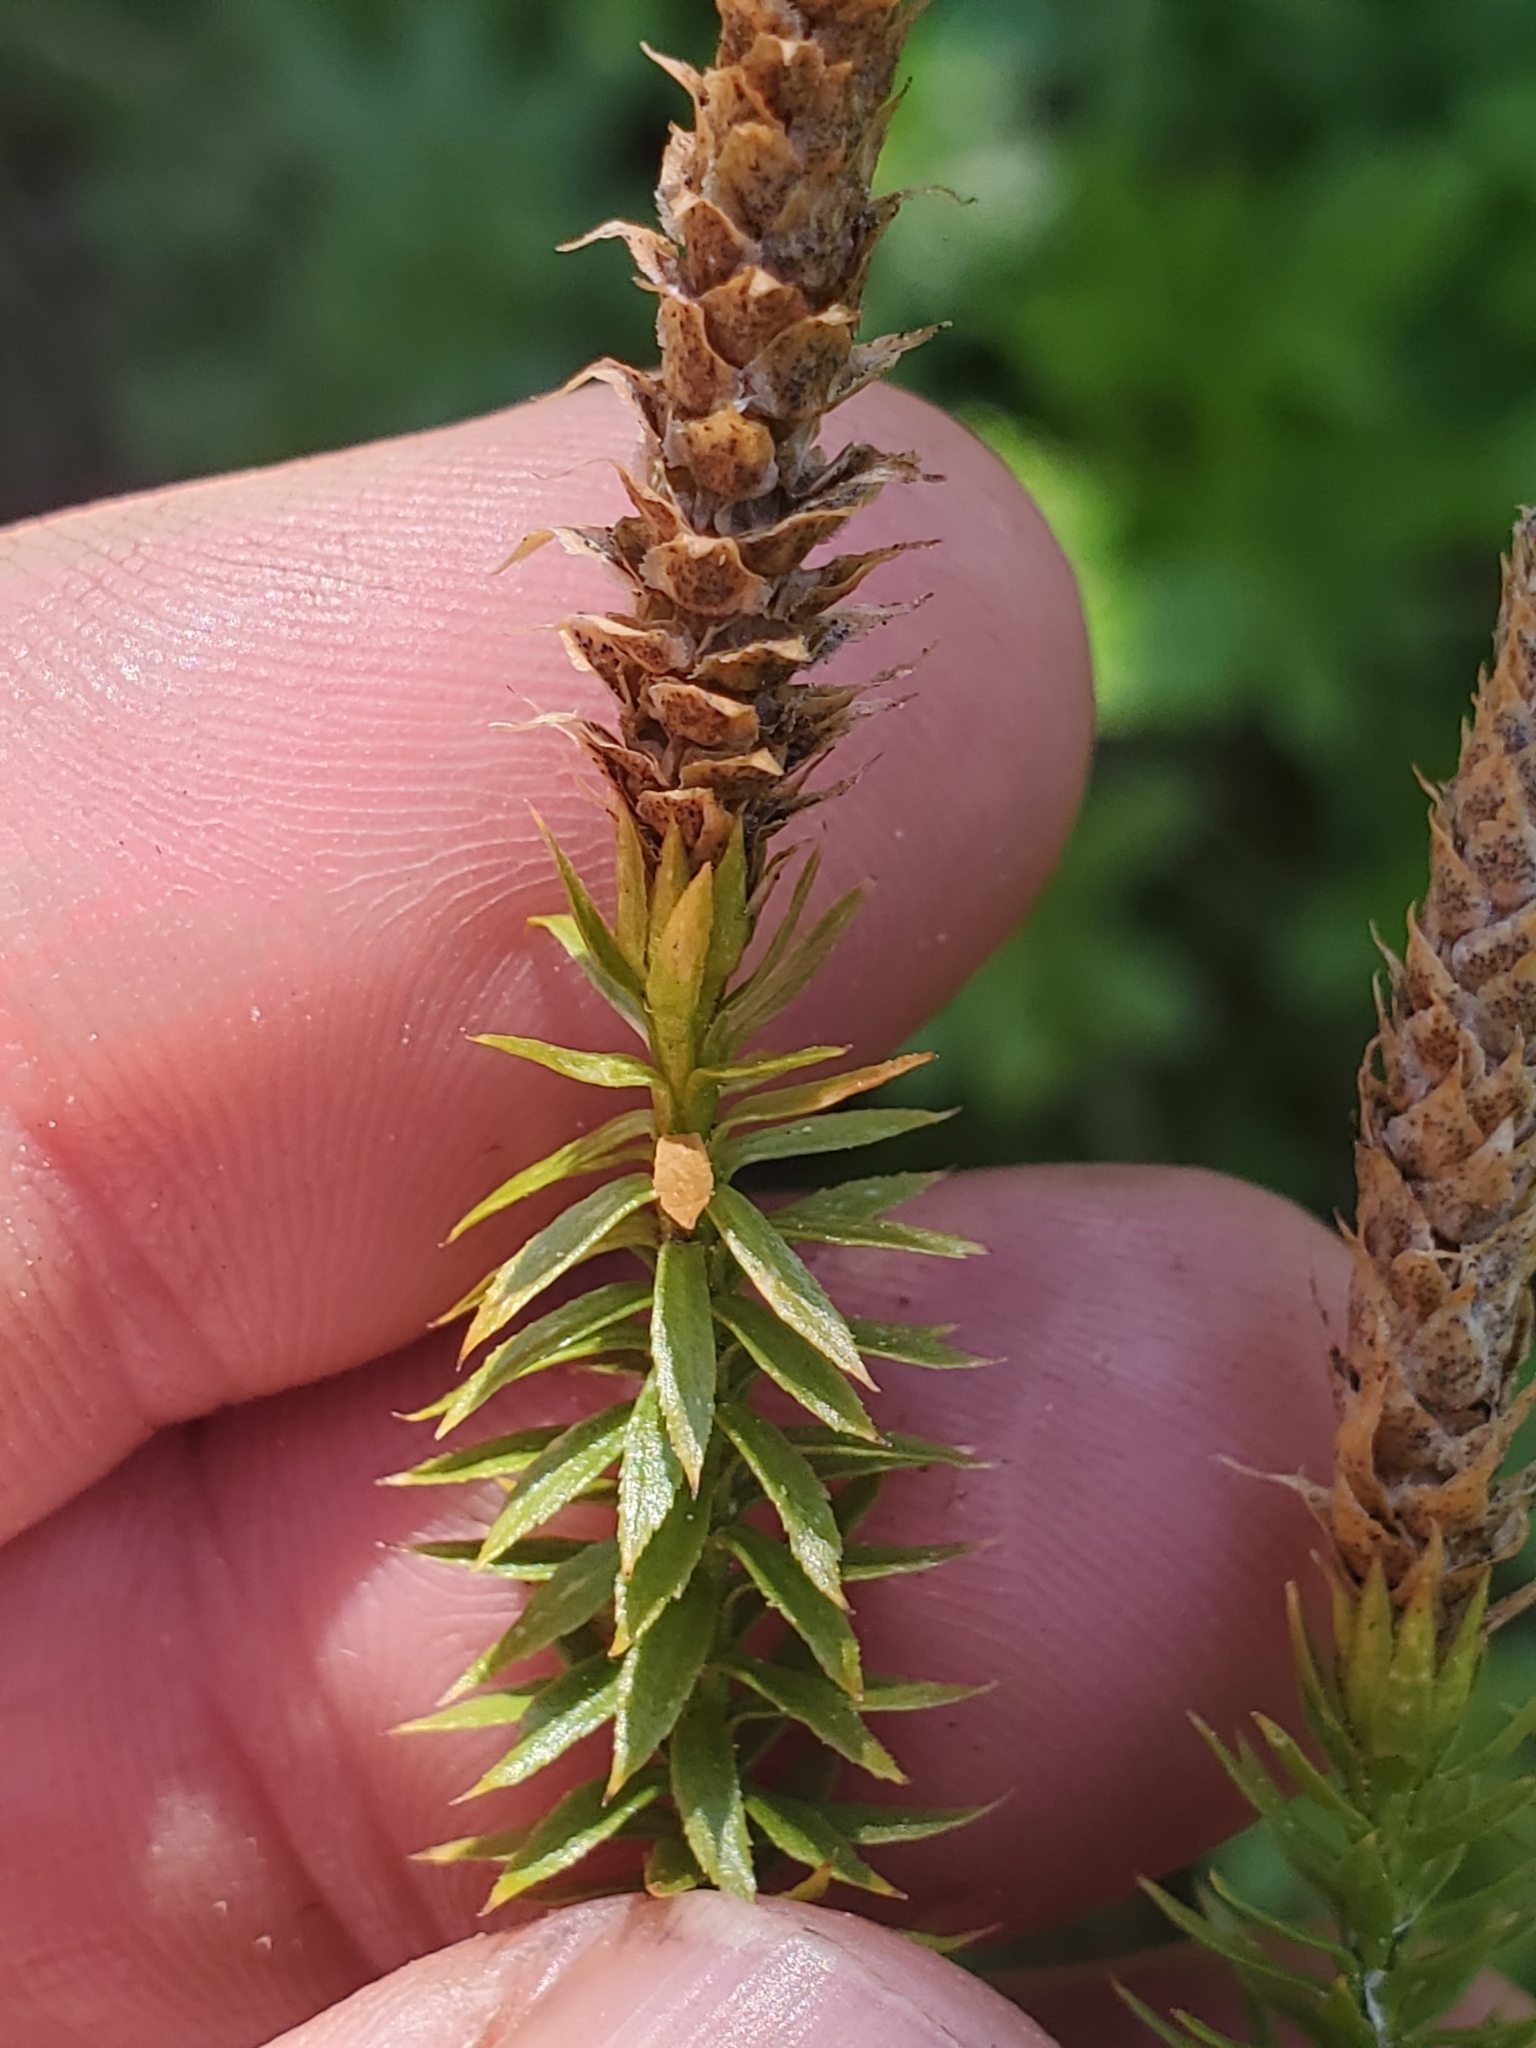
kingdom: Plantae
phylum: Tracheophyta
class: Lycopodiopsida
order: Lycopodiales
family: Lycopodiaceae
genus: Spinulum
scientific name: Spinulum annotinum
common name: Interrupted club-moss
